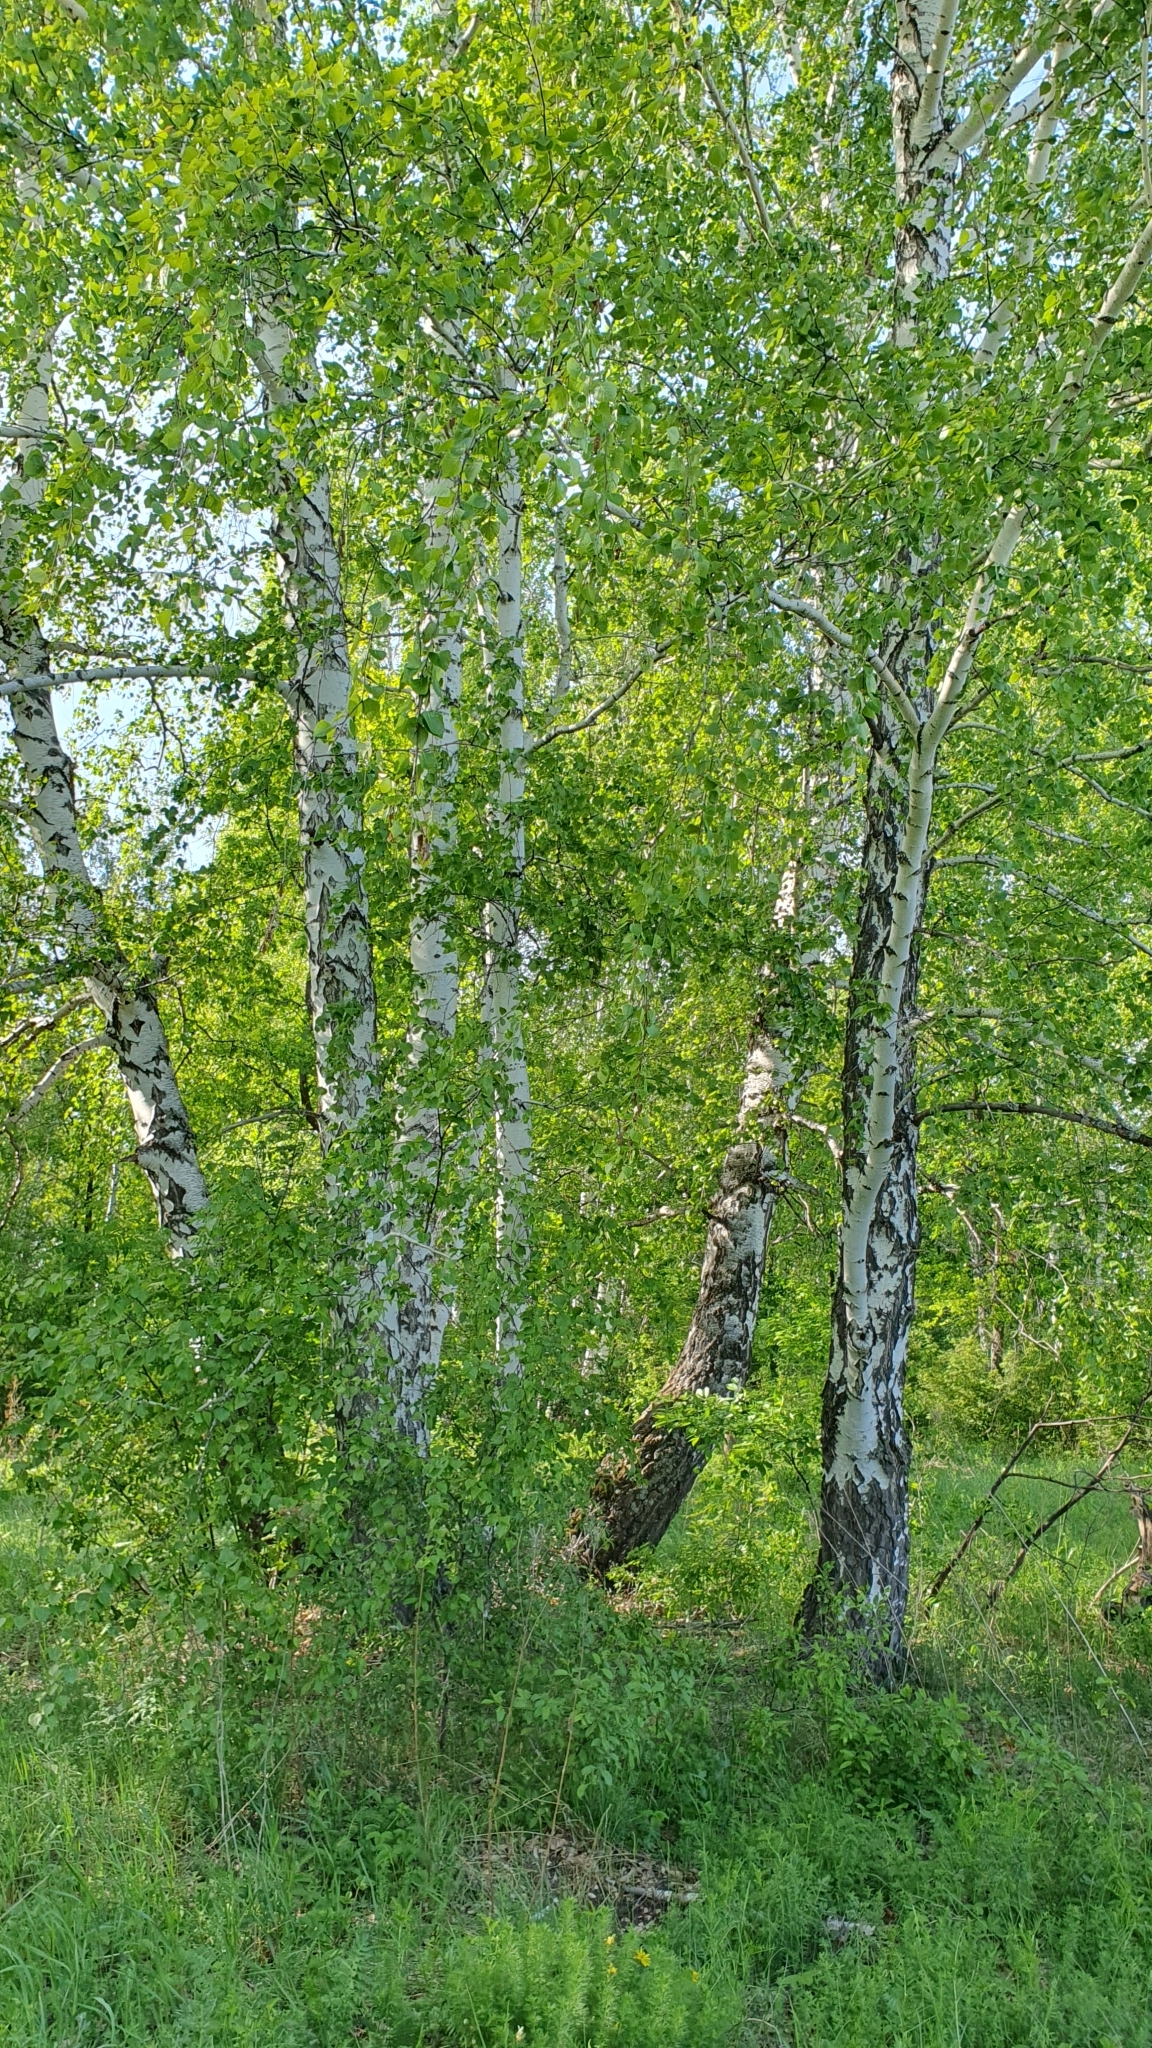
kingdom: Plantae
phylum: Tracheophyta
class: Magnoliopsida
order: Fagales
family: Betulaceae
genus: Betula
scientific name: Betula pendula
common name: Silver birch
